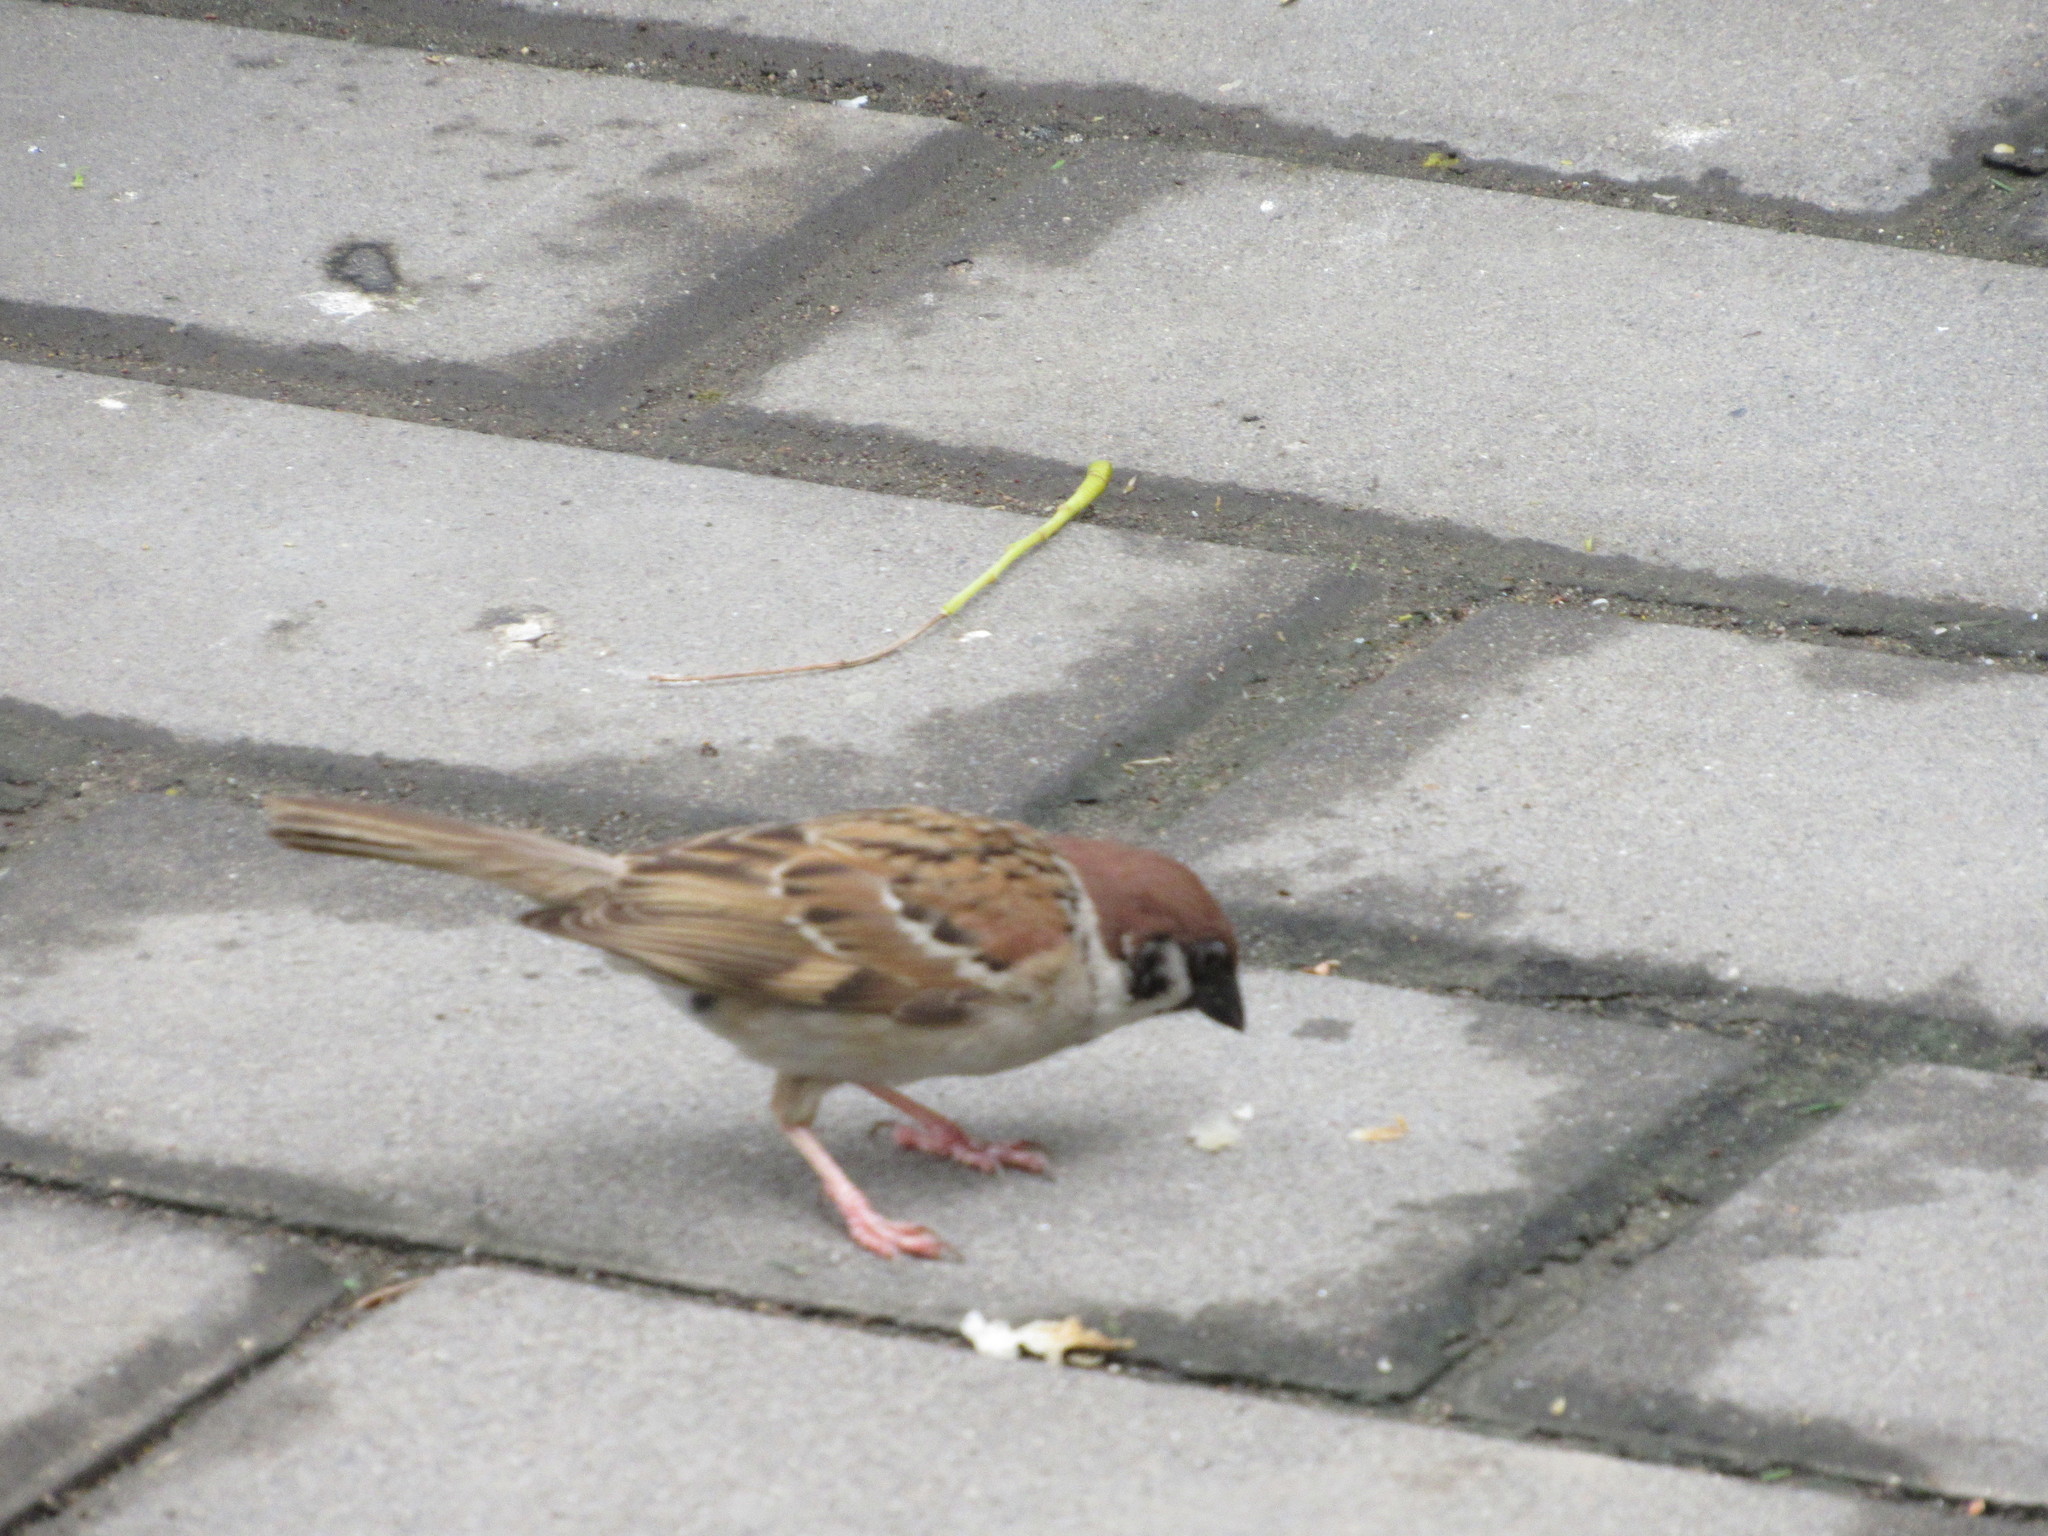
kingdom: Animalia
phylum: Chordata
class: Aves
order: Passeriformes
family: Passeridae
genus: Passer
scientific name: Passer montanus
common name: Eurasian tree sparrow
